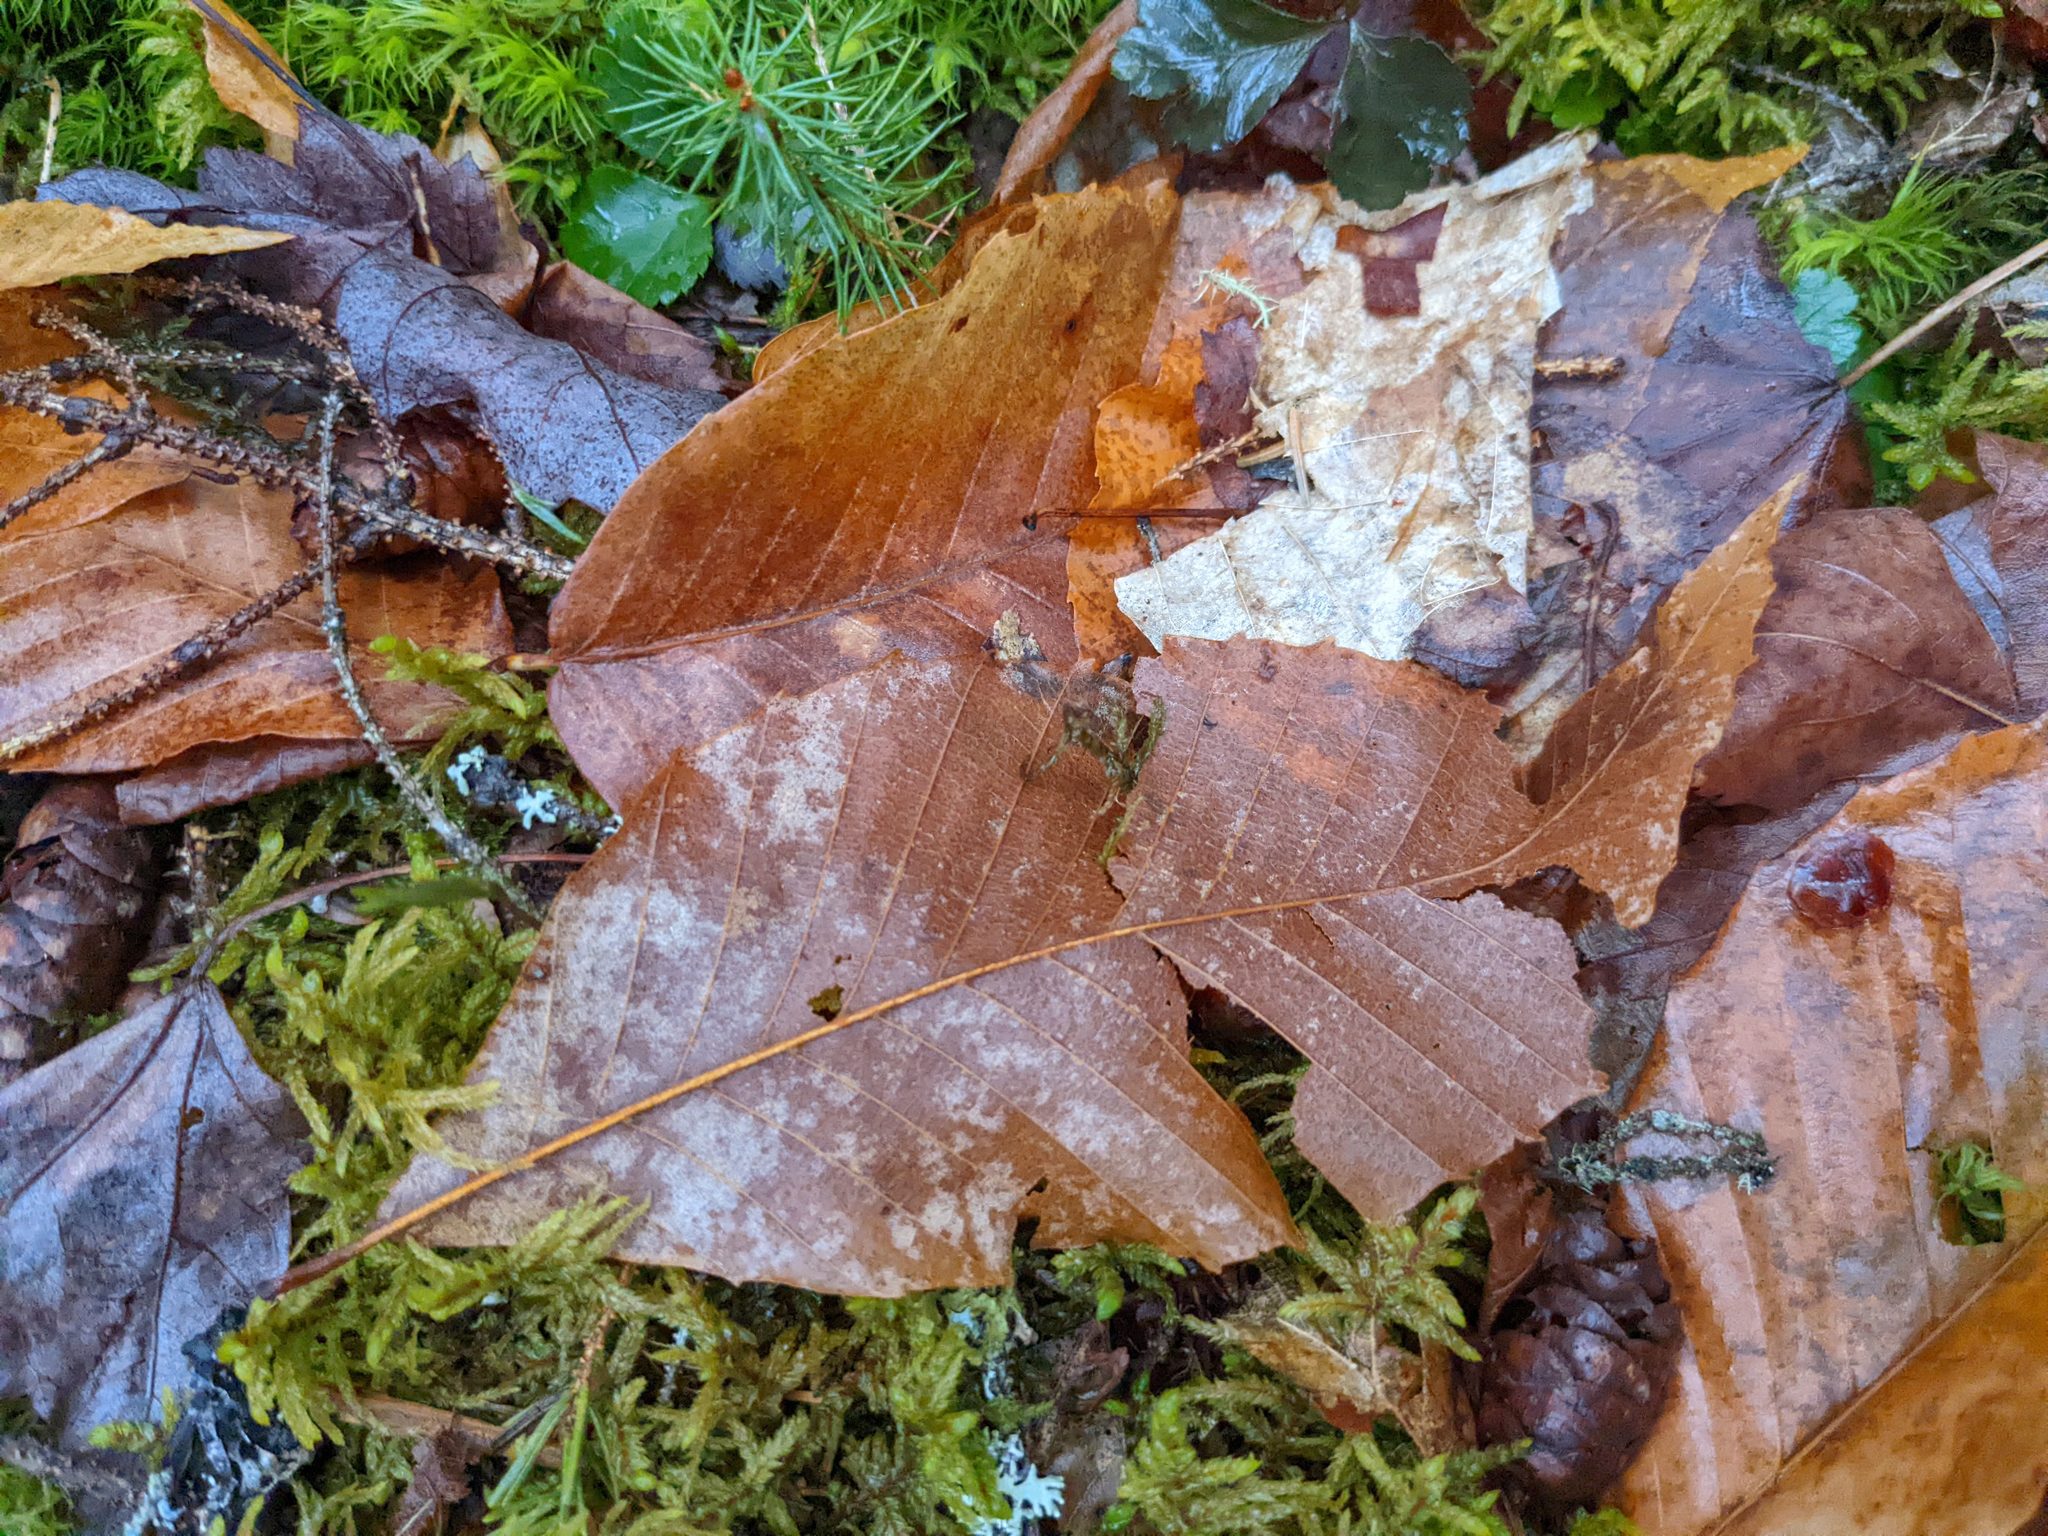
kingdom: Plantae
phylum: Tracheophyta
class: Magnoliopsida
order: Fagales
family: Fagaceae
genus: Fagus
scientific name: Fagus grandifolia
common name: American beech
